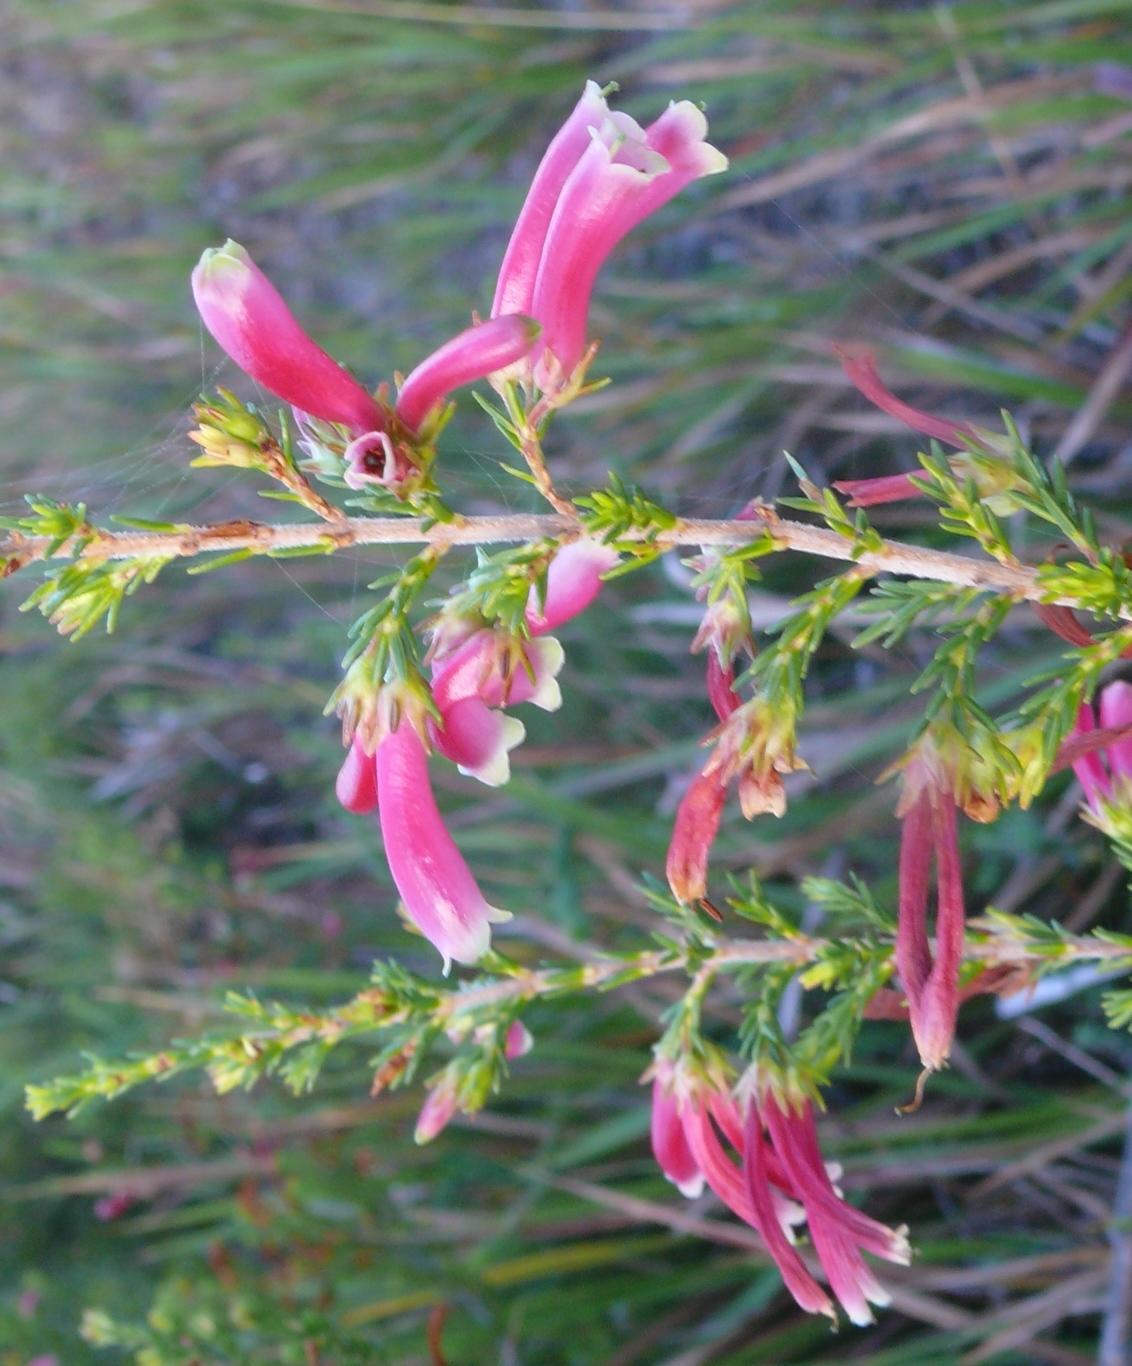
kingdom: Plantae
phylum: Tracheophyta
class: Magnoliopsida
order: Ericales
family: Ericaceae
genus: Erica
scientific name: Erica discolor
